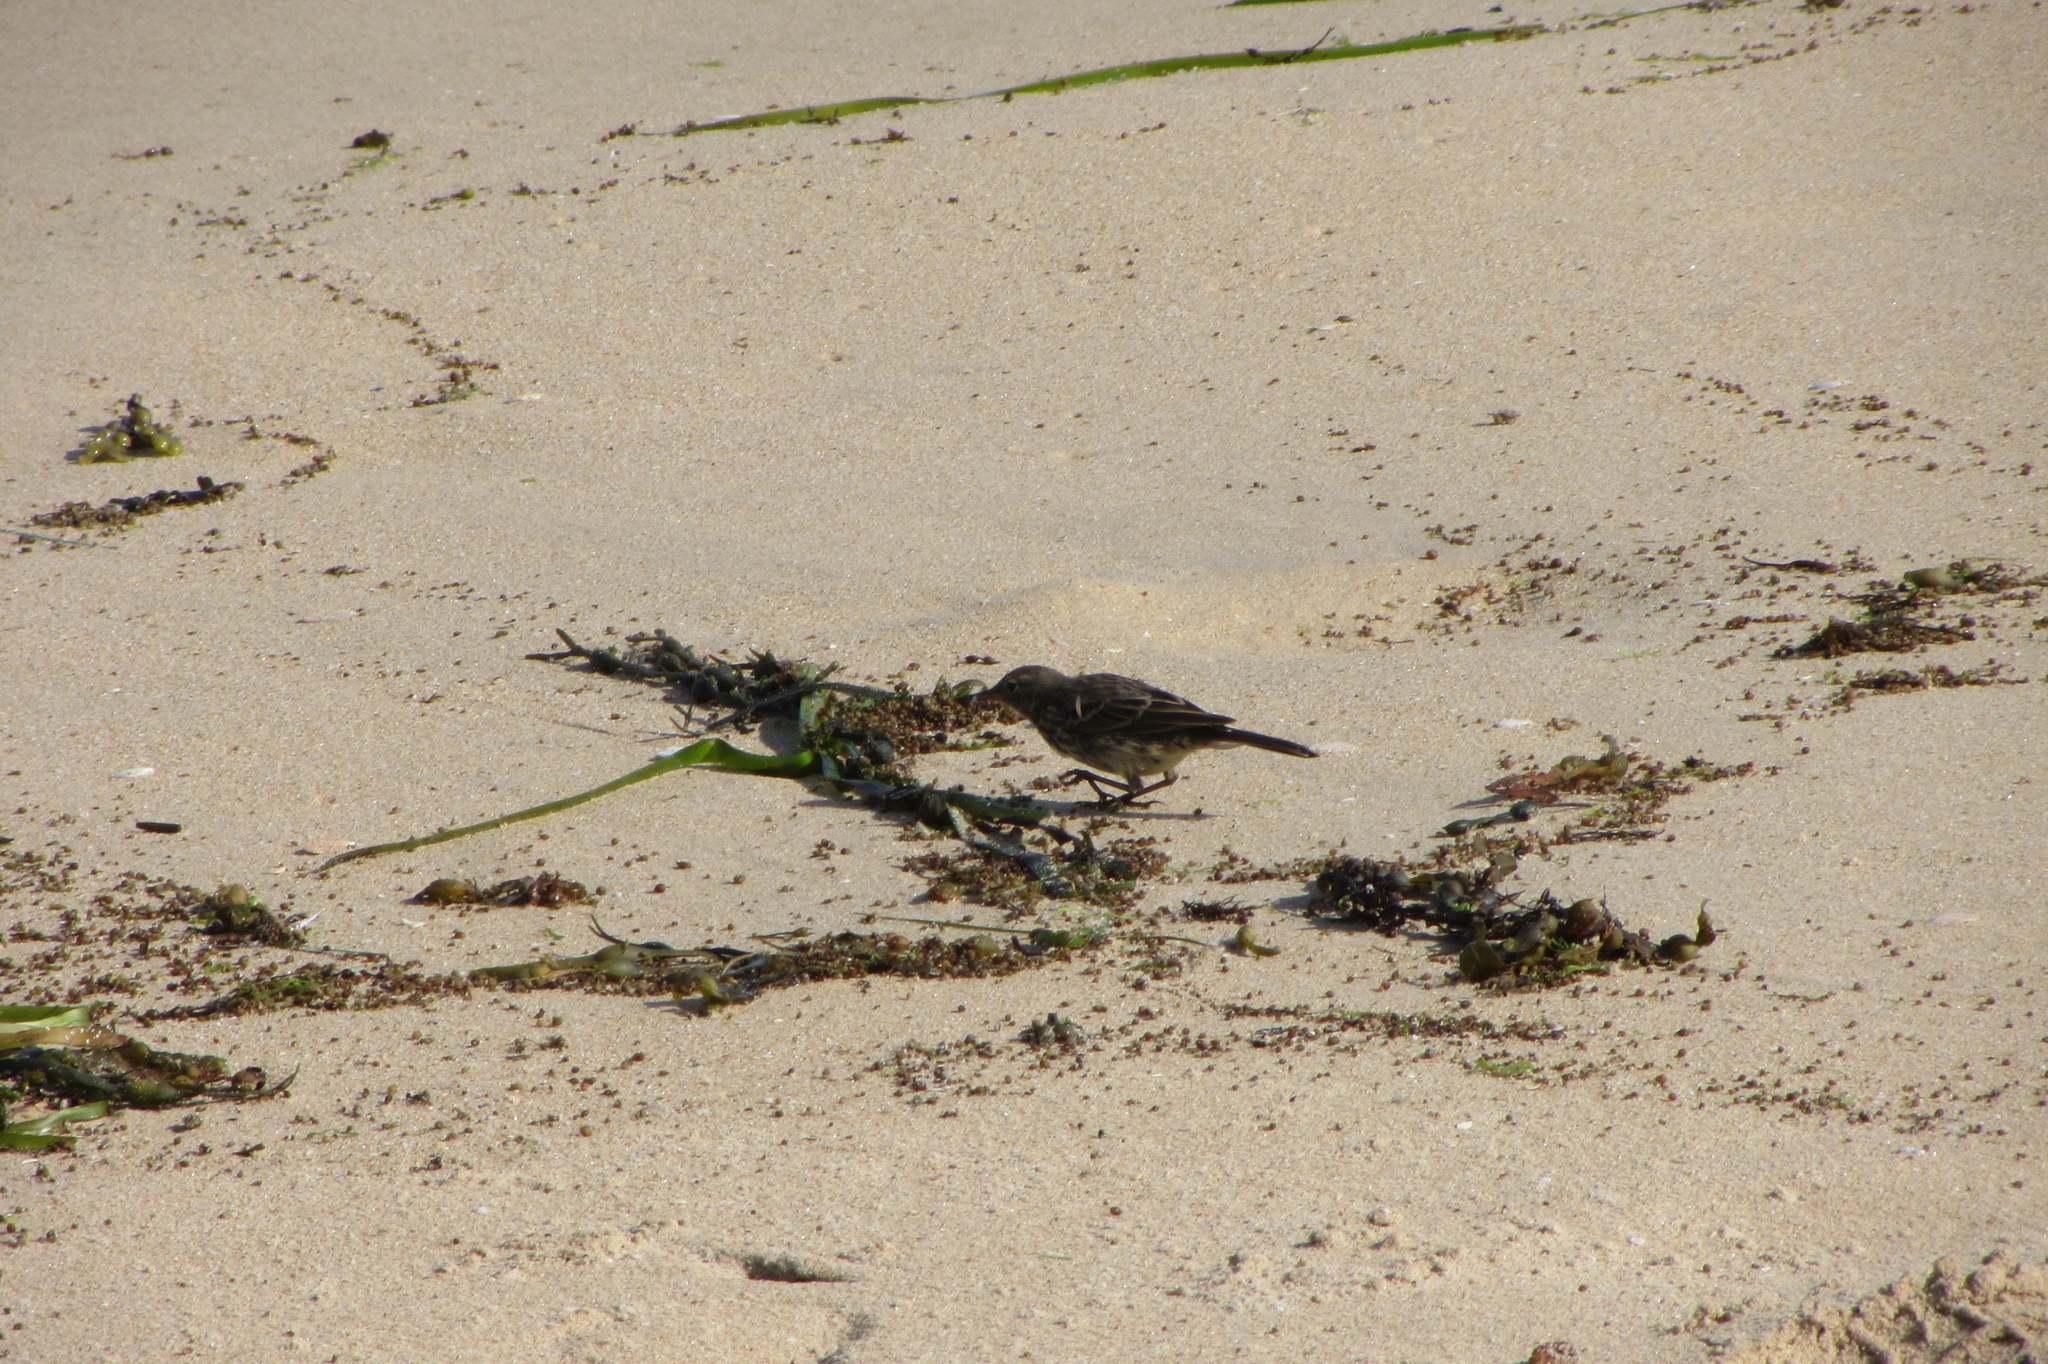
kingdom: Animalia
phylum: Chordata
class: Aves
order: Passeriformes
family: Motacillidae
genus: Anthus
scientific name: Anthus petrosus
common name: Eurasian rock pipit
